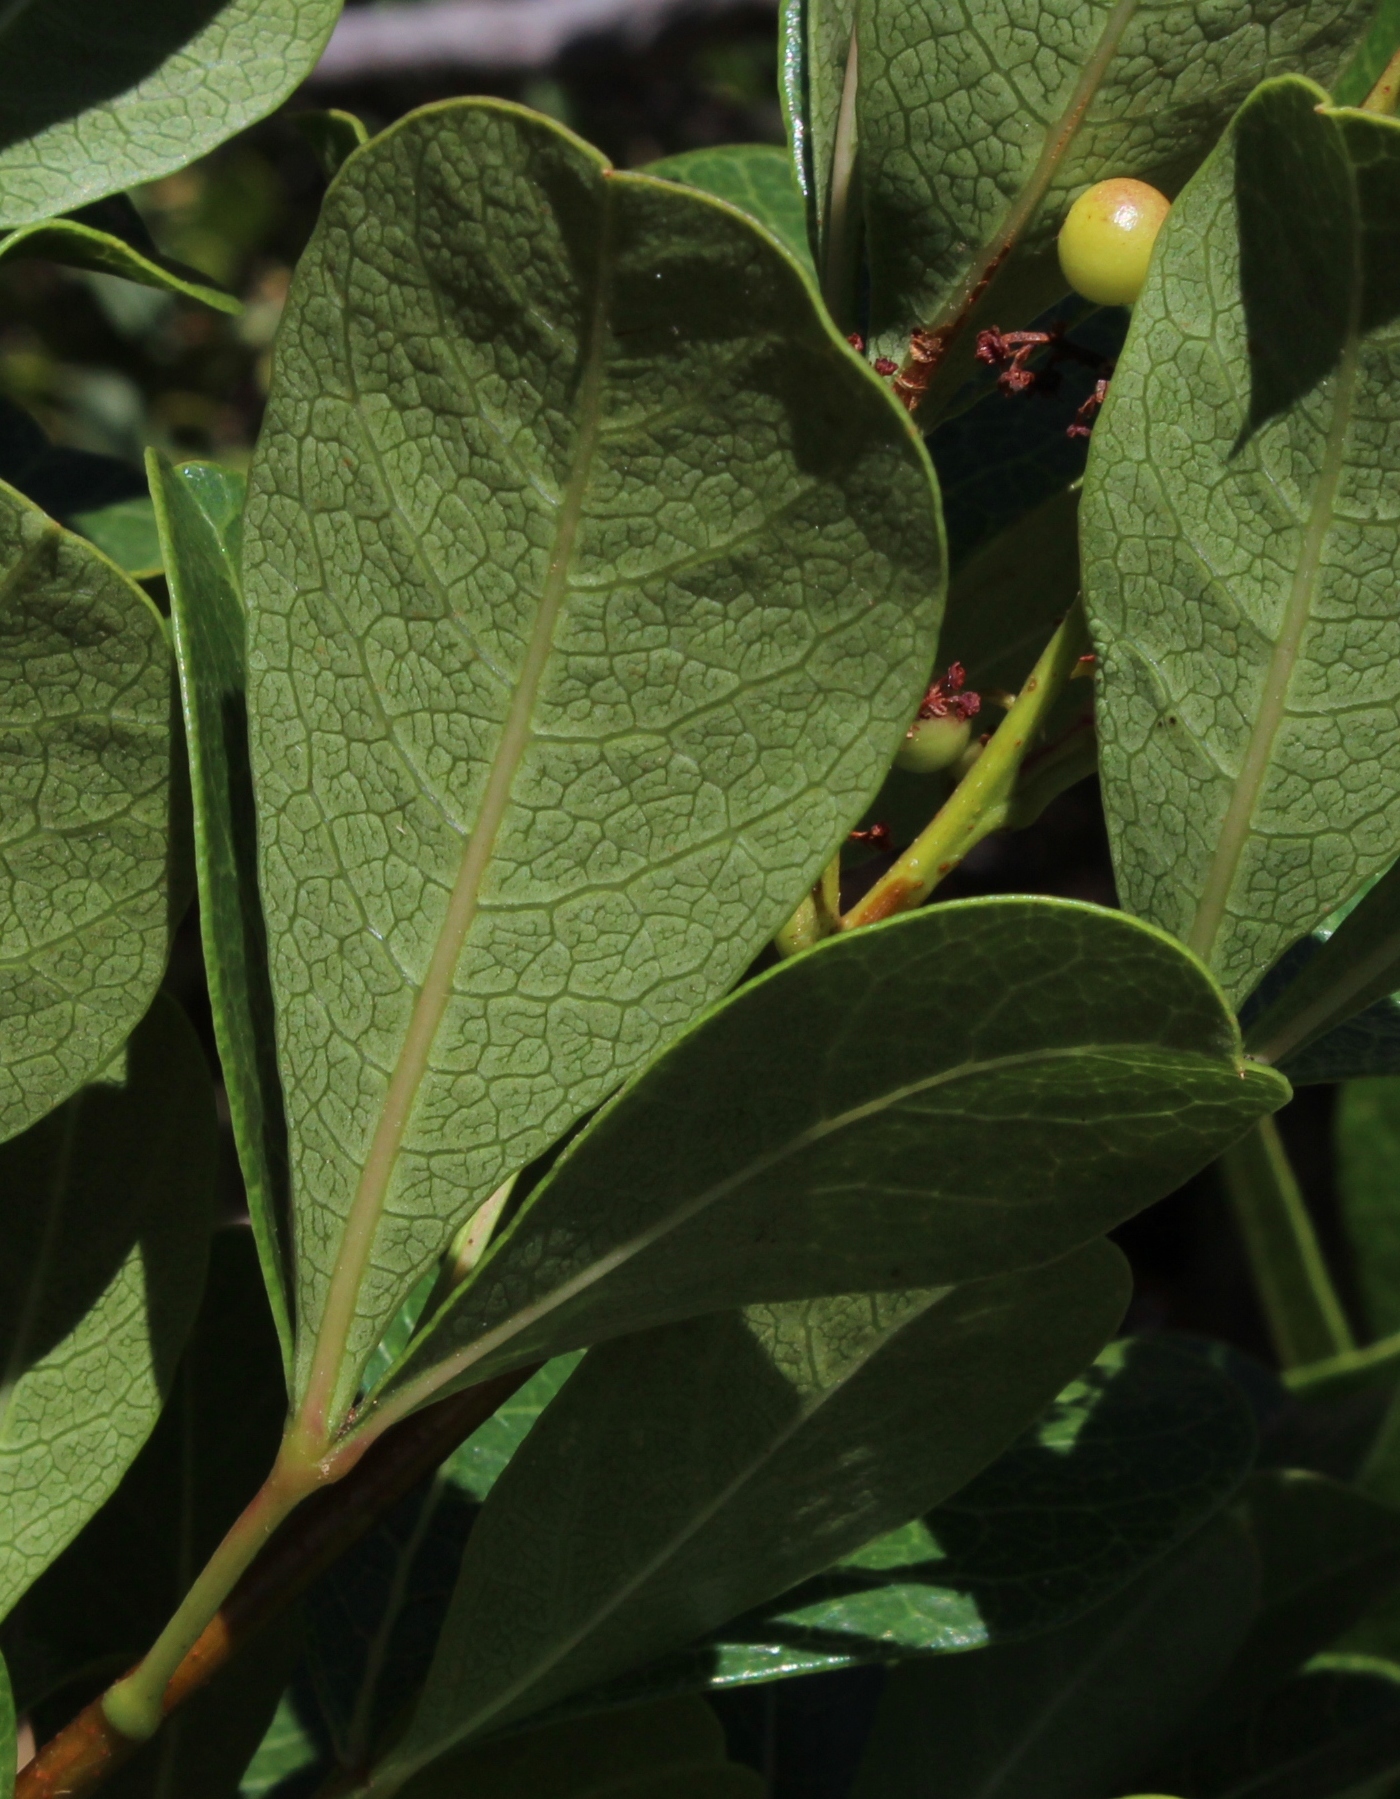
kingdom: Plantae
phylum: Tracheophyta
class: Magnoliopsida
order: Sapindales
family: Anacardiaceae
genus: Searsia
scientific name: Searsia laevigata
